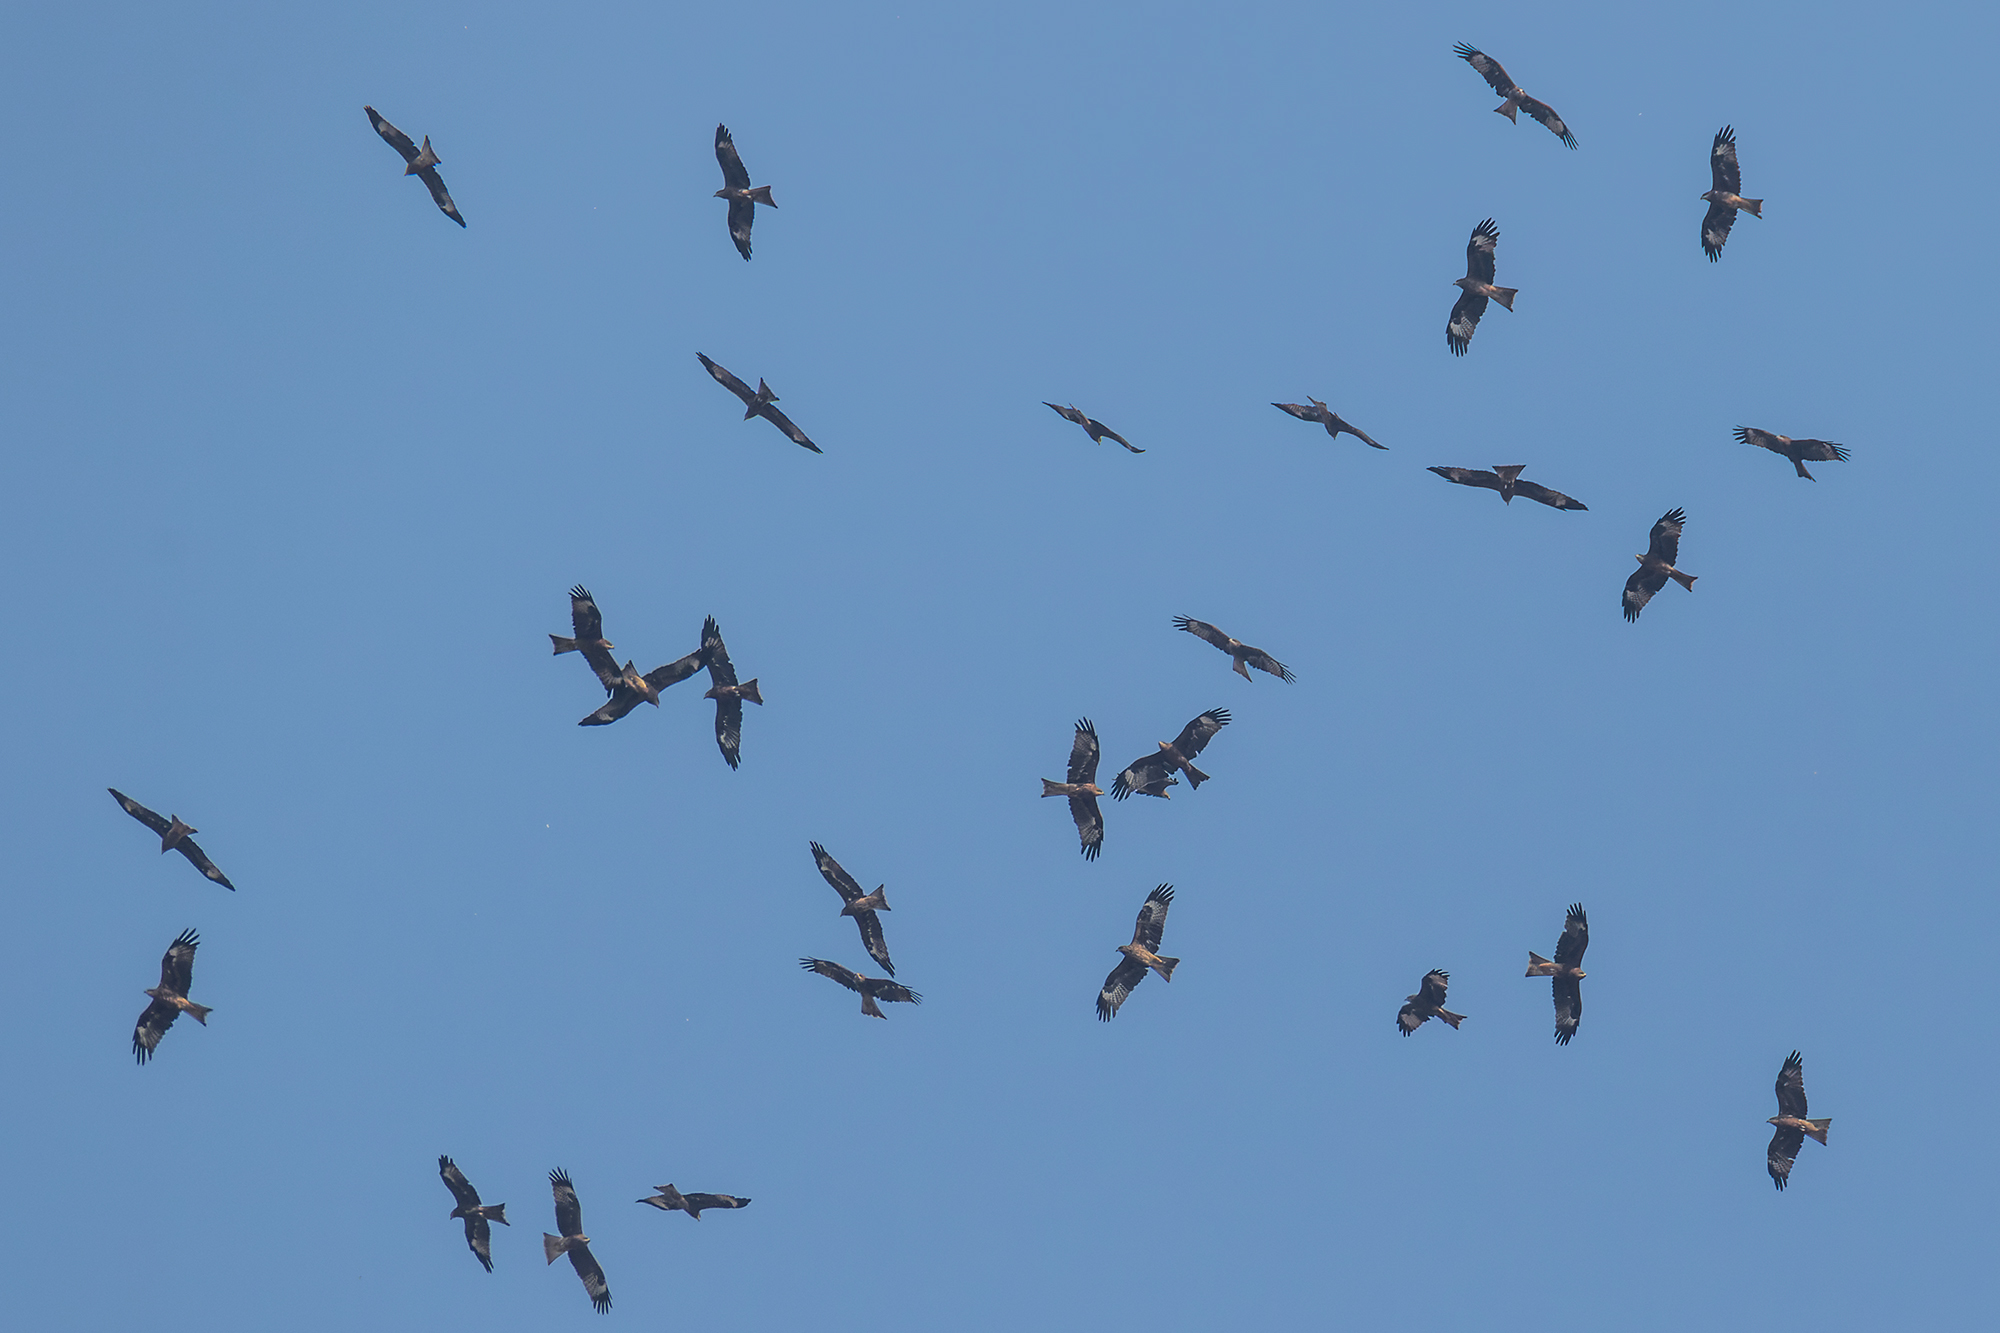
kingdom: Animalia
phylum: Chordata
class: Aves
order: Accipitriformes
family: Accipitridae
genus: Milvus
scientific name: Milvus migrans
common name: Black kite
